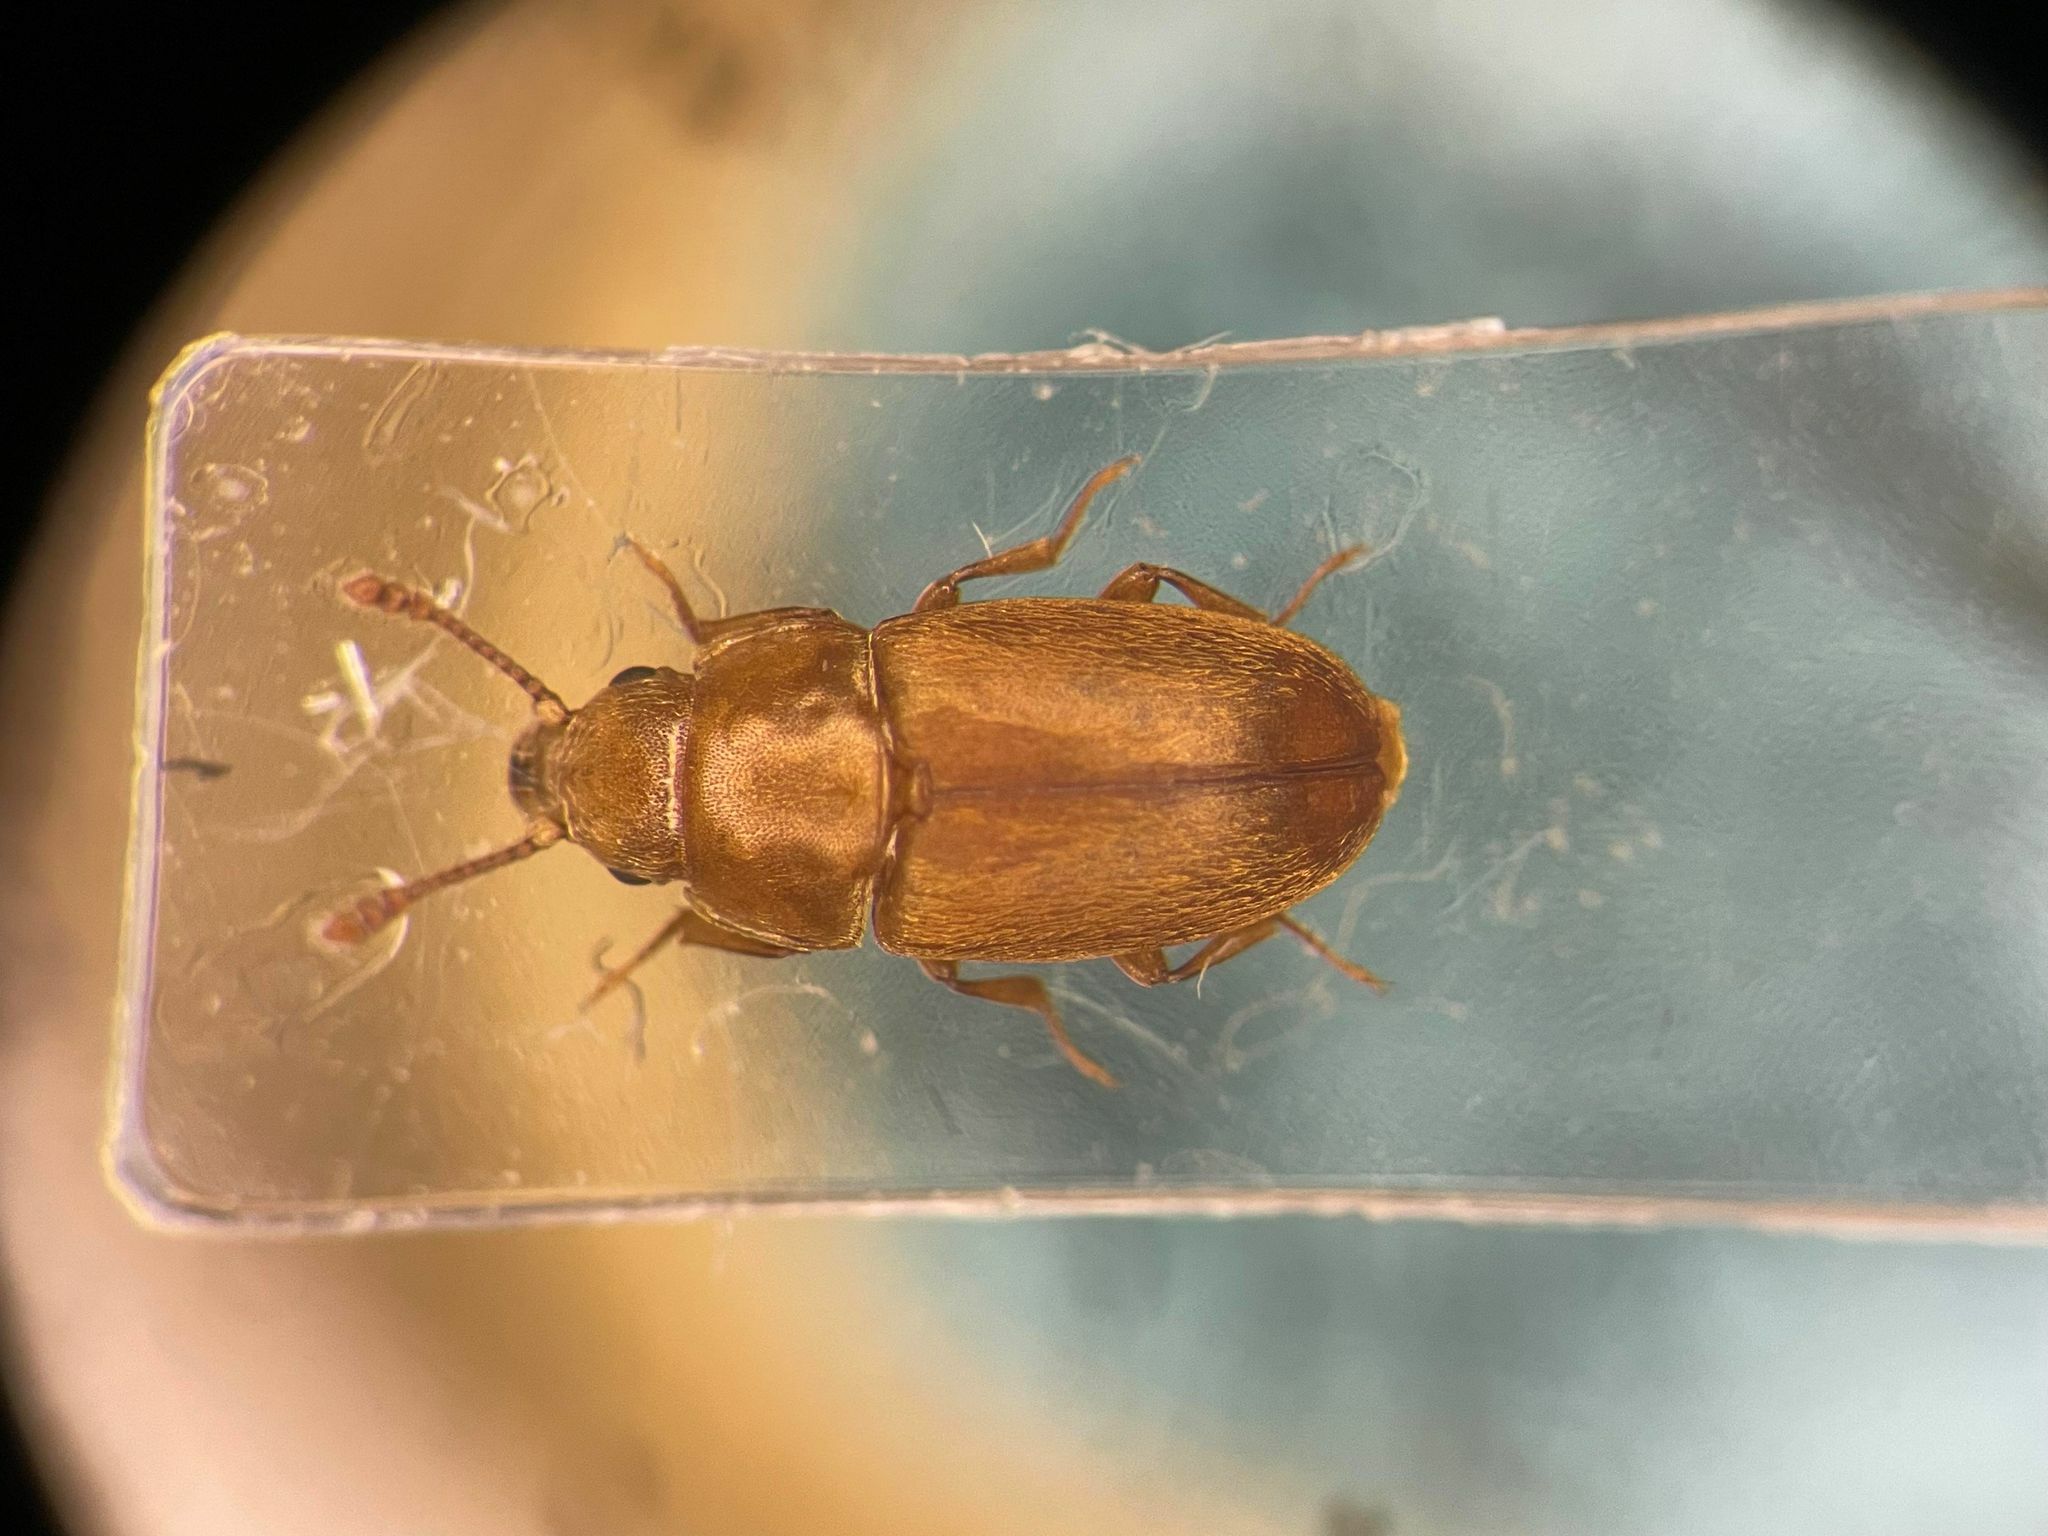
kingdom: Animalia
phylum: Arthropoda
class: Insecta
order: Coleoptera
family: Cryptophagidae
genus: Antherophagus
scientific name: Antherophagus ochraceus
